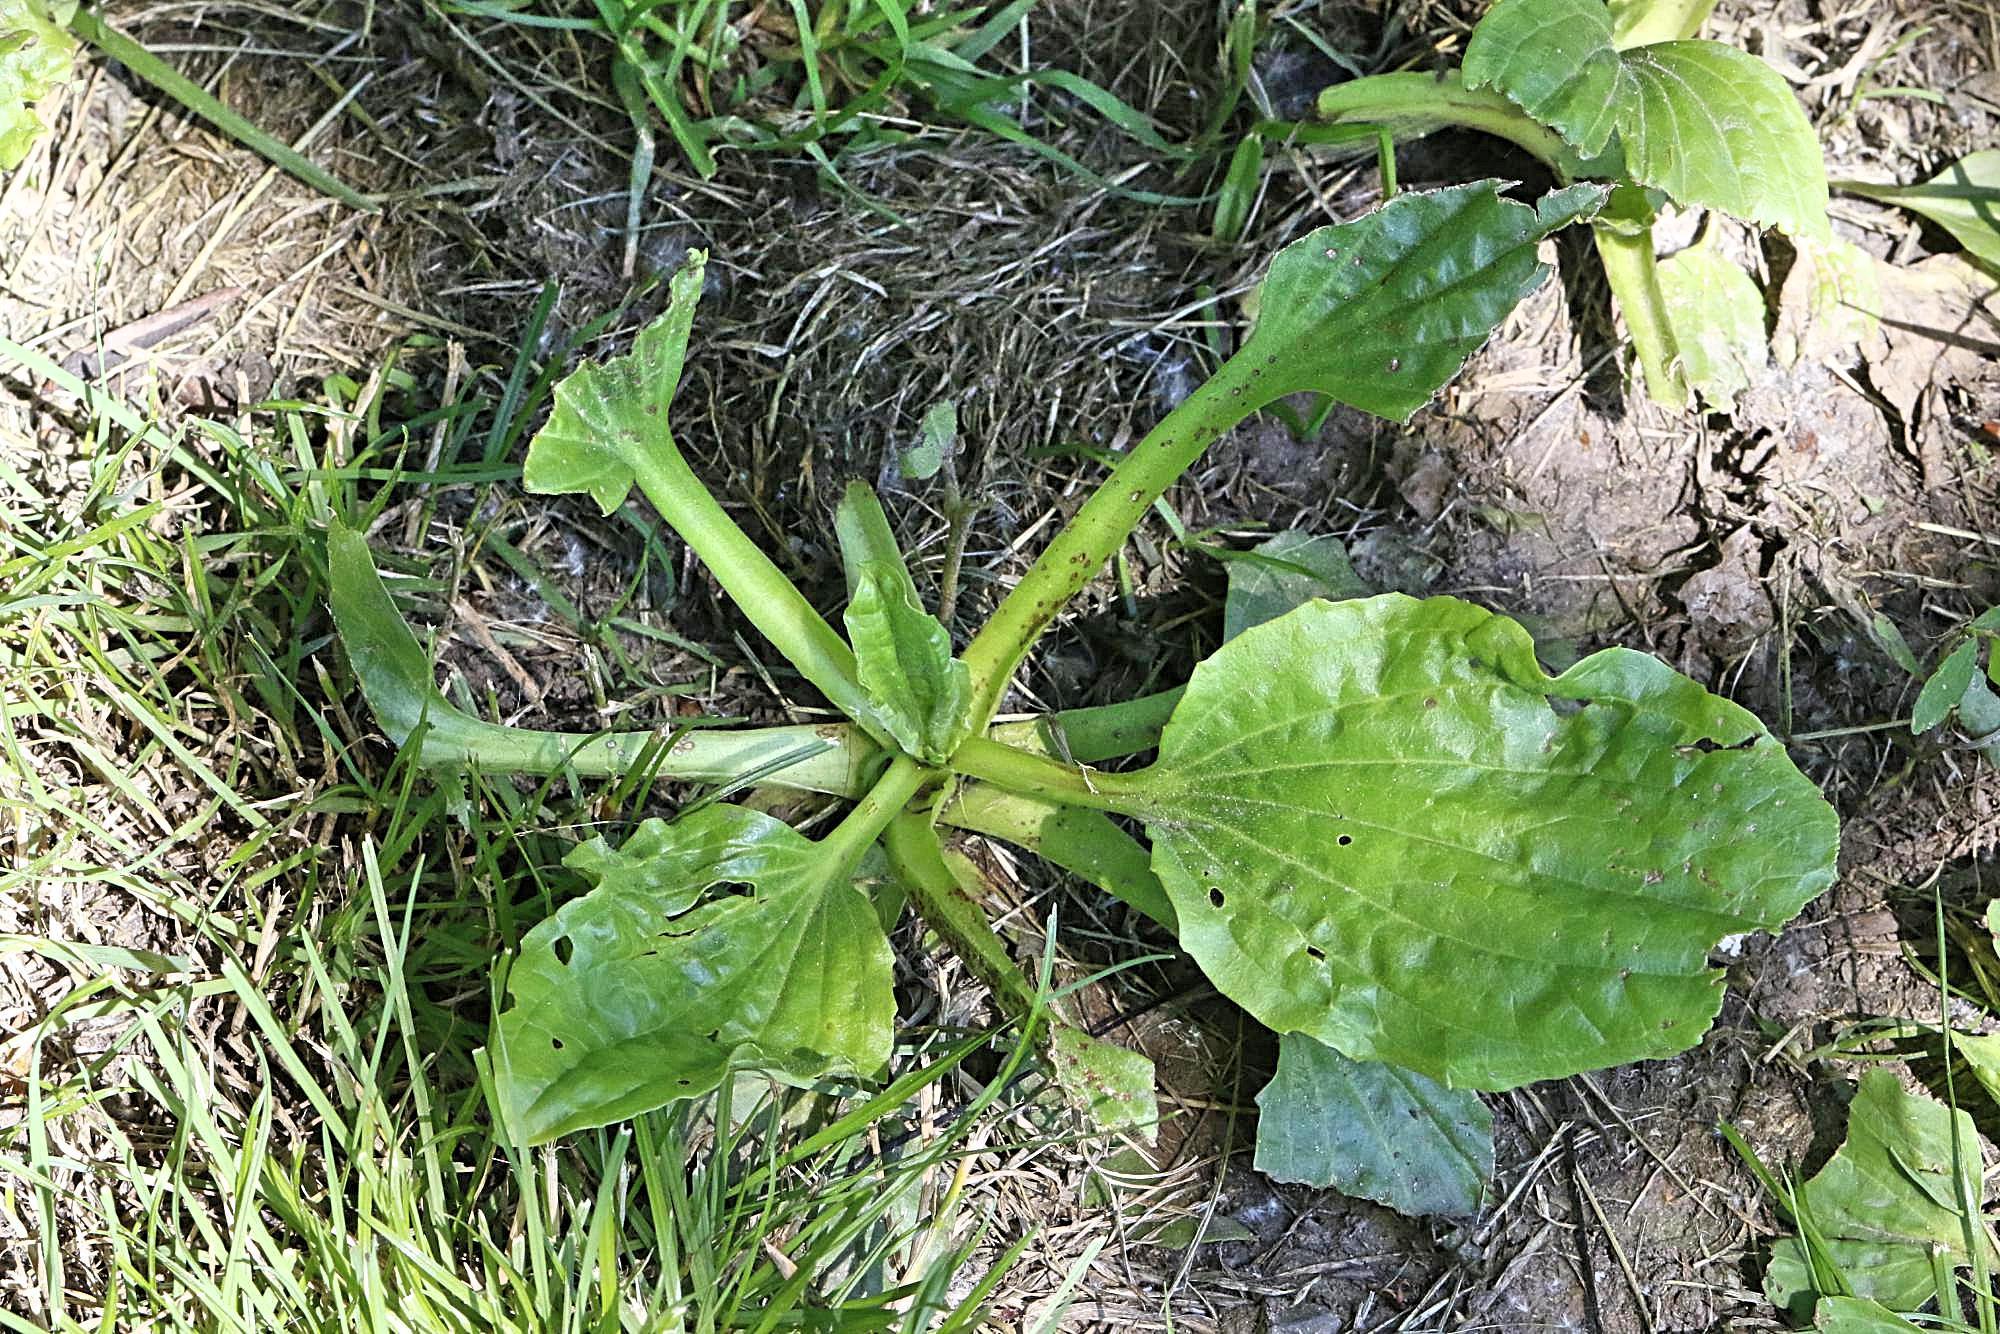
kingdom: Plantae
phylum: Tracheophyta
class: Magnoliopsida
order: Lamiales
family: Plantaginaceae
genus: Plantago
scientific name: Plantago major
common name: Common plantain
